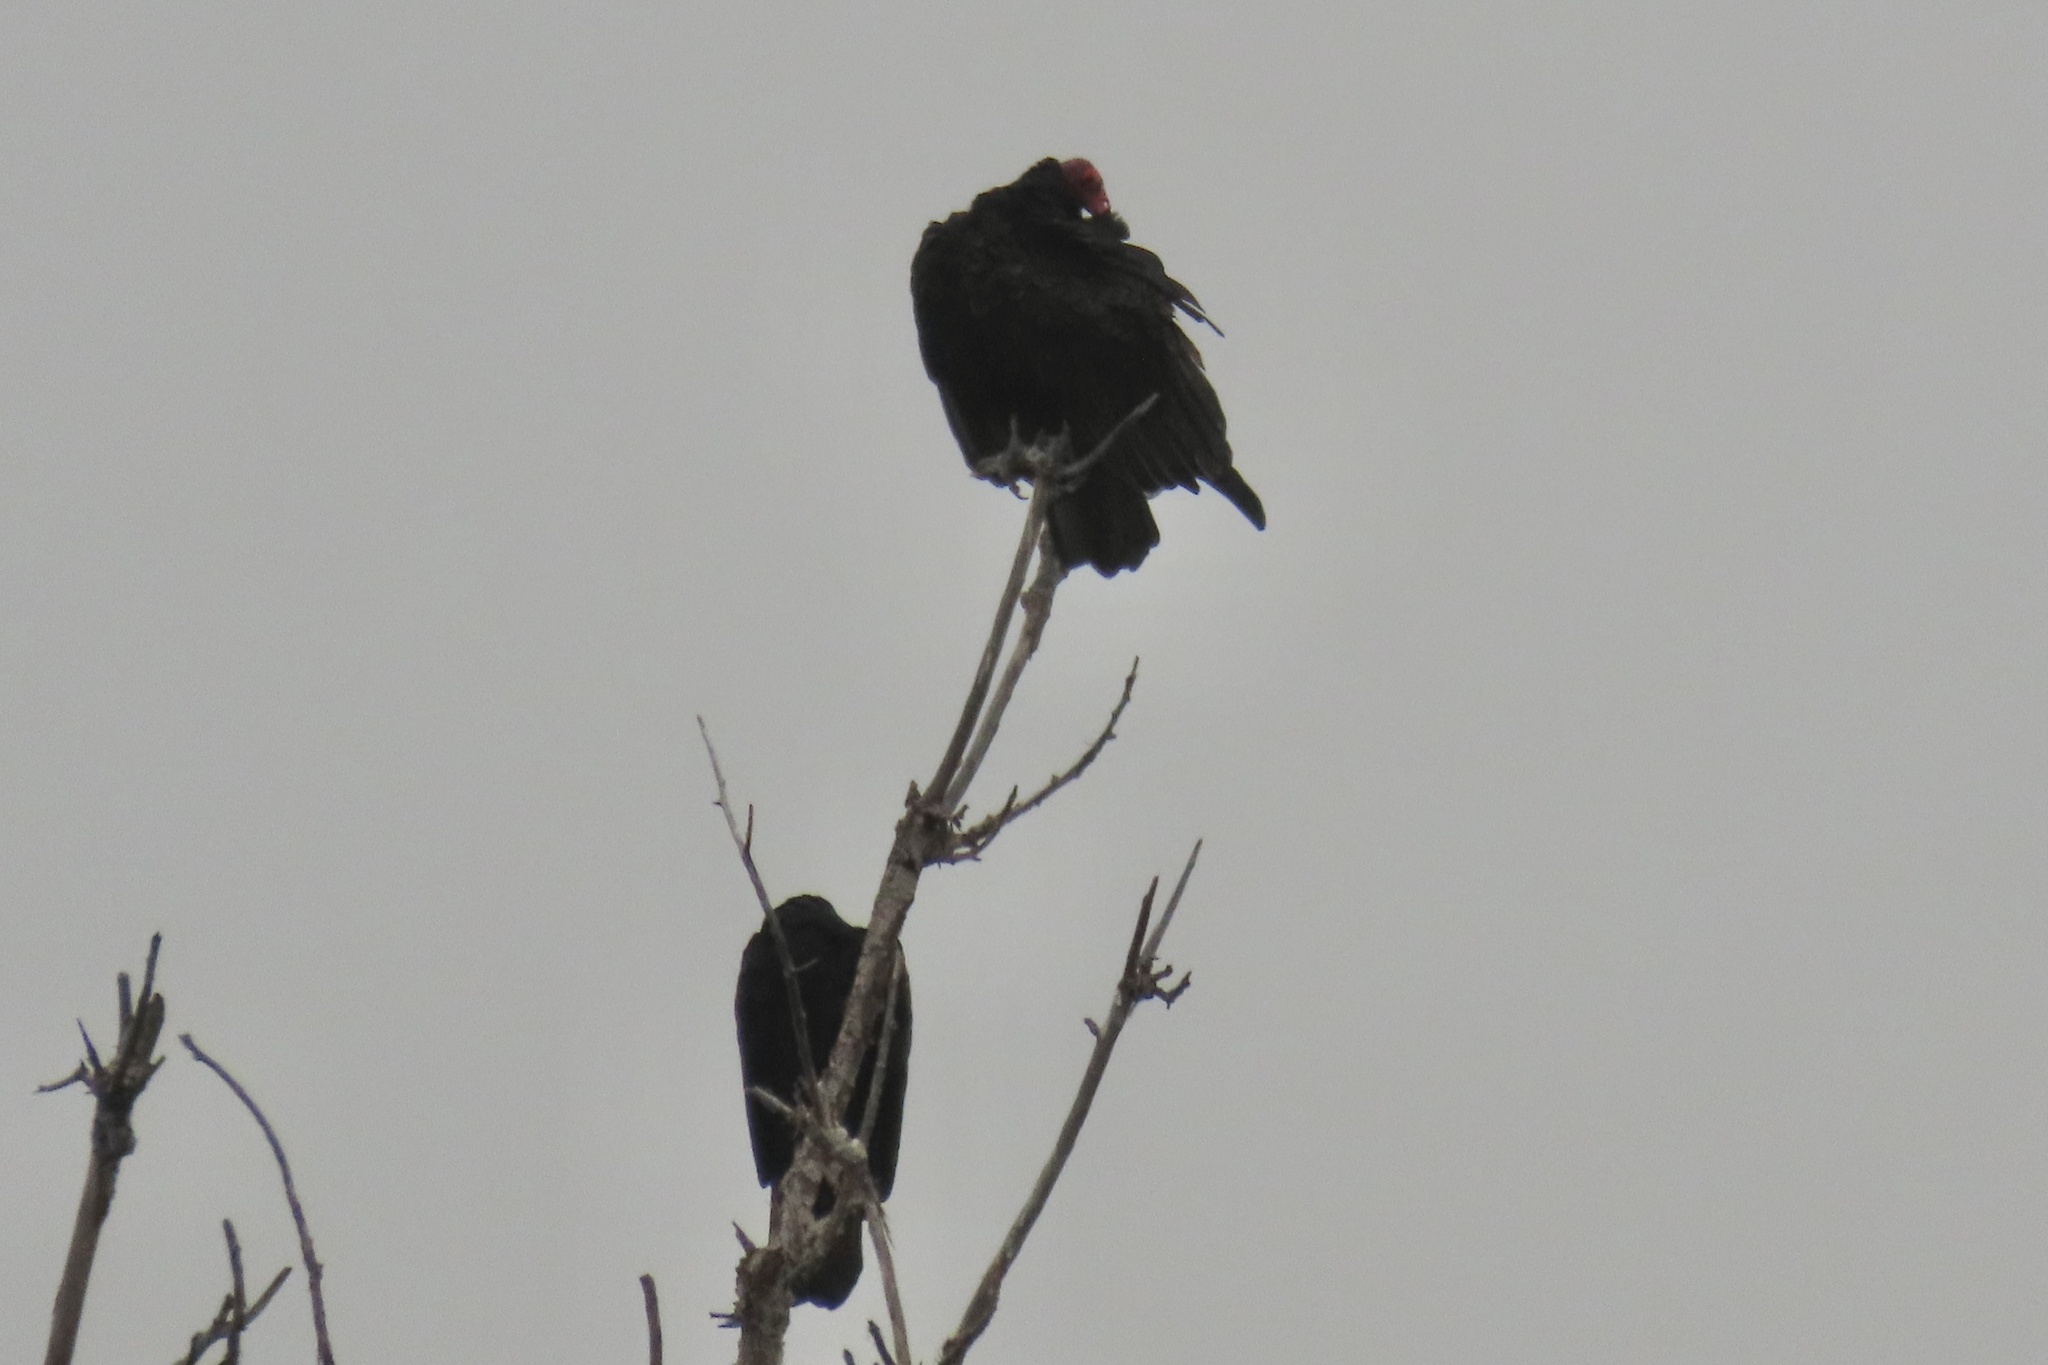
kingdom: Animalia
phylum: Chordata
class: Aves
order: Accipitriformes
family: Cathartidae
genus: Cathartes
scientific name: Cathartes aura
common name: Turkey vulture
